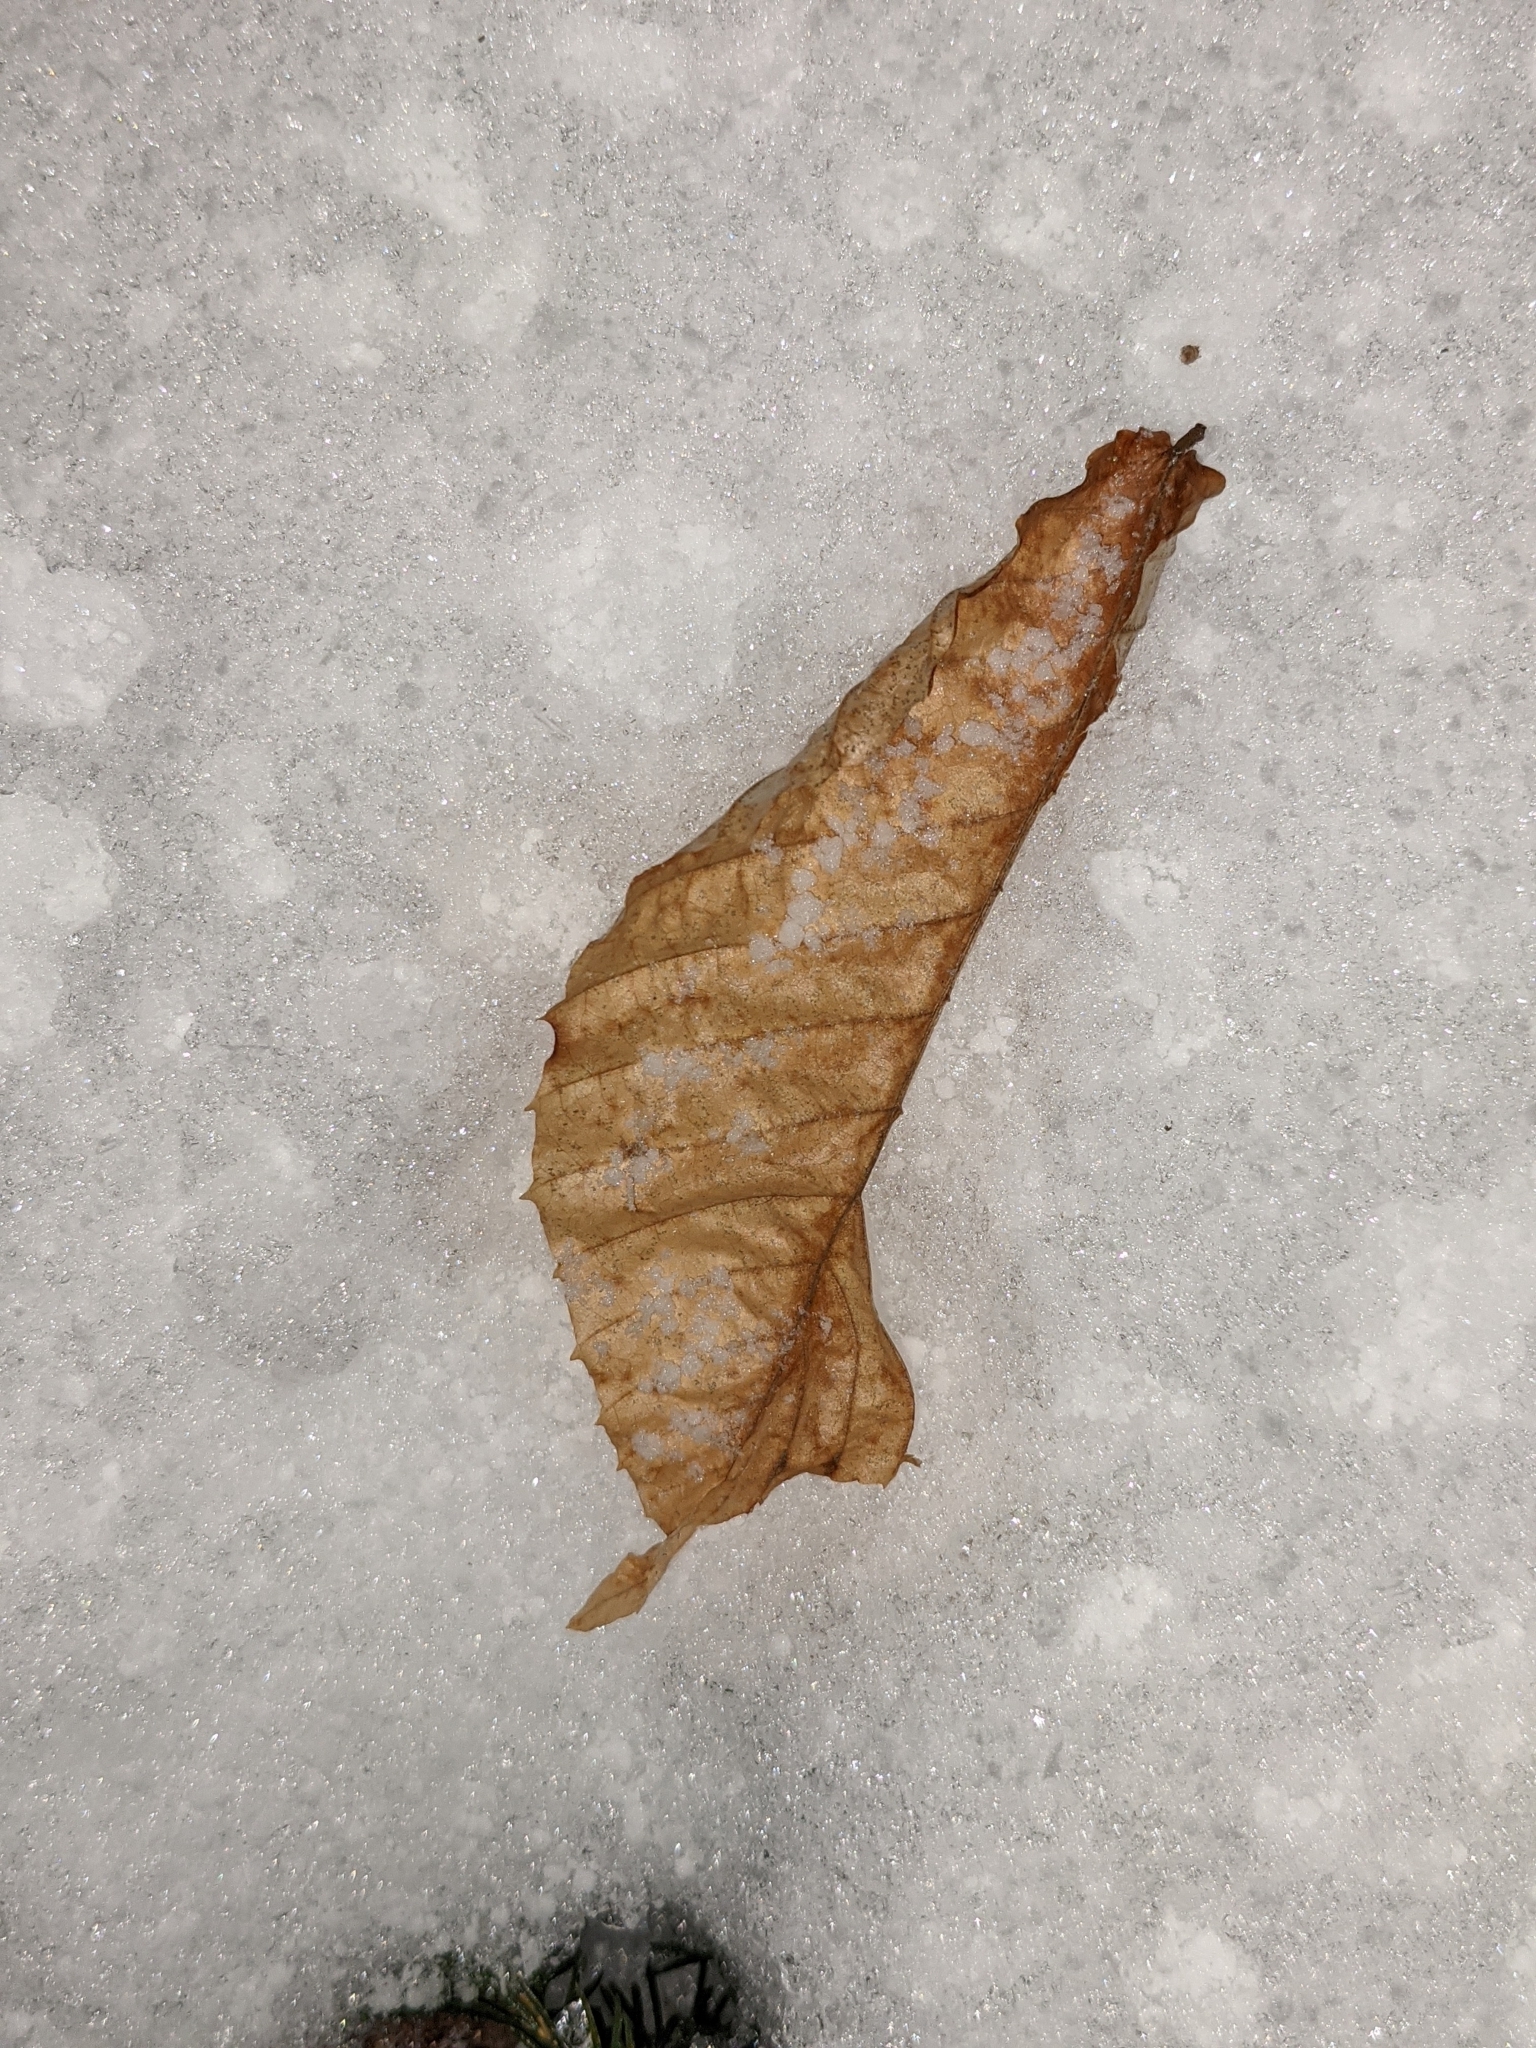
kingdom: Plantae
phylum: Tracheophyta
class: Magnoliopsida
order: Fagales
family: Fagaceae
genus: Fagus
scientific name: Fagus grandifolia
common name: American beech
